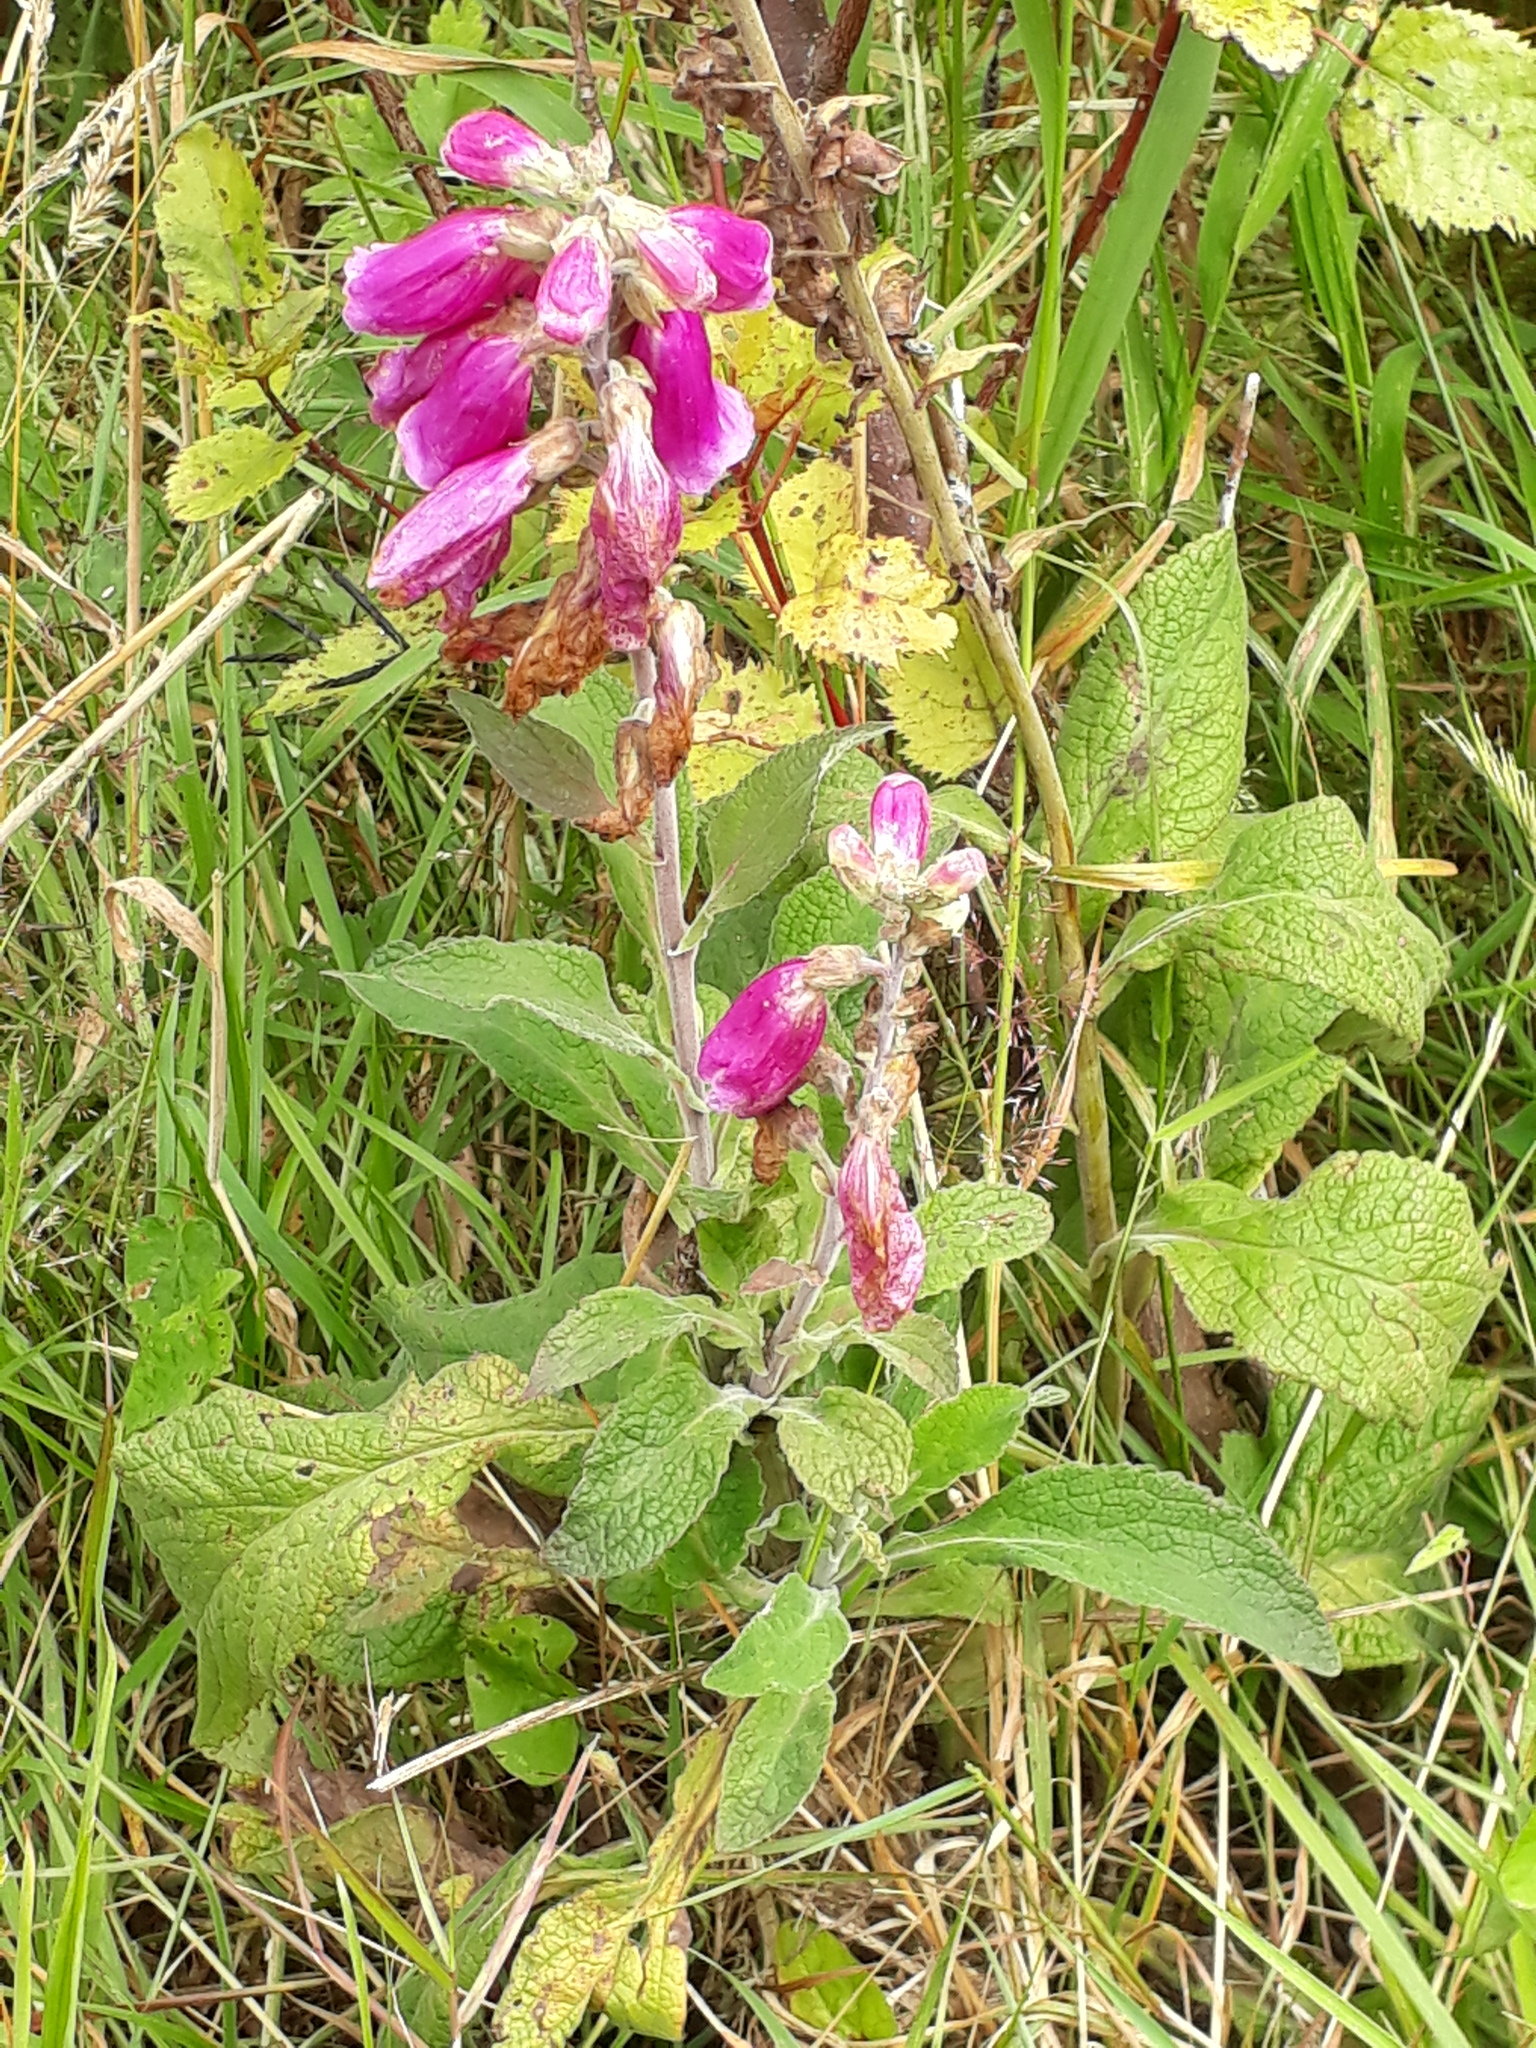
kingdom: Plantae
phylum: Tracheophyta
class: Magnoliopsida
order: Lamiales
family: Plantaginaceae
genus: Digitalis
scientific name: Digitalis purpurea
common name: Foxglove
